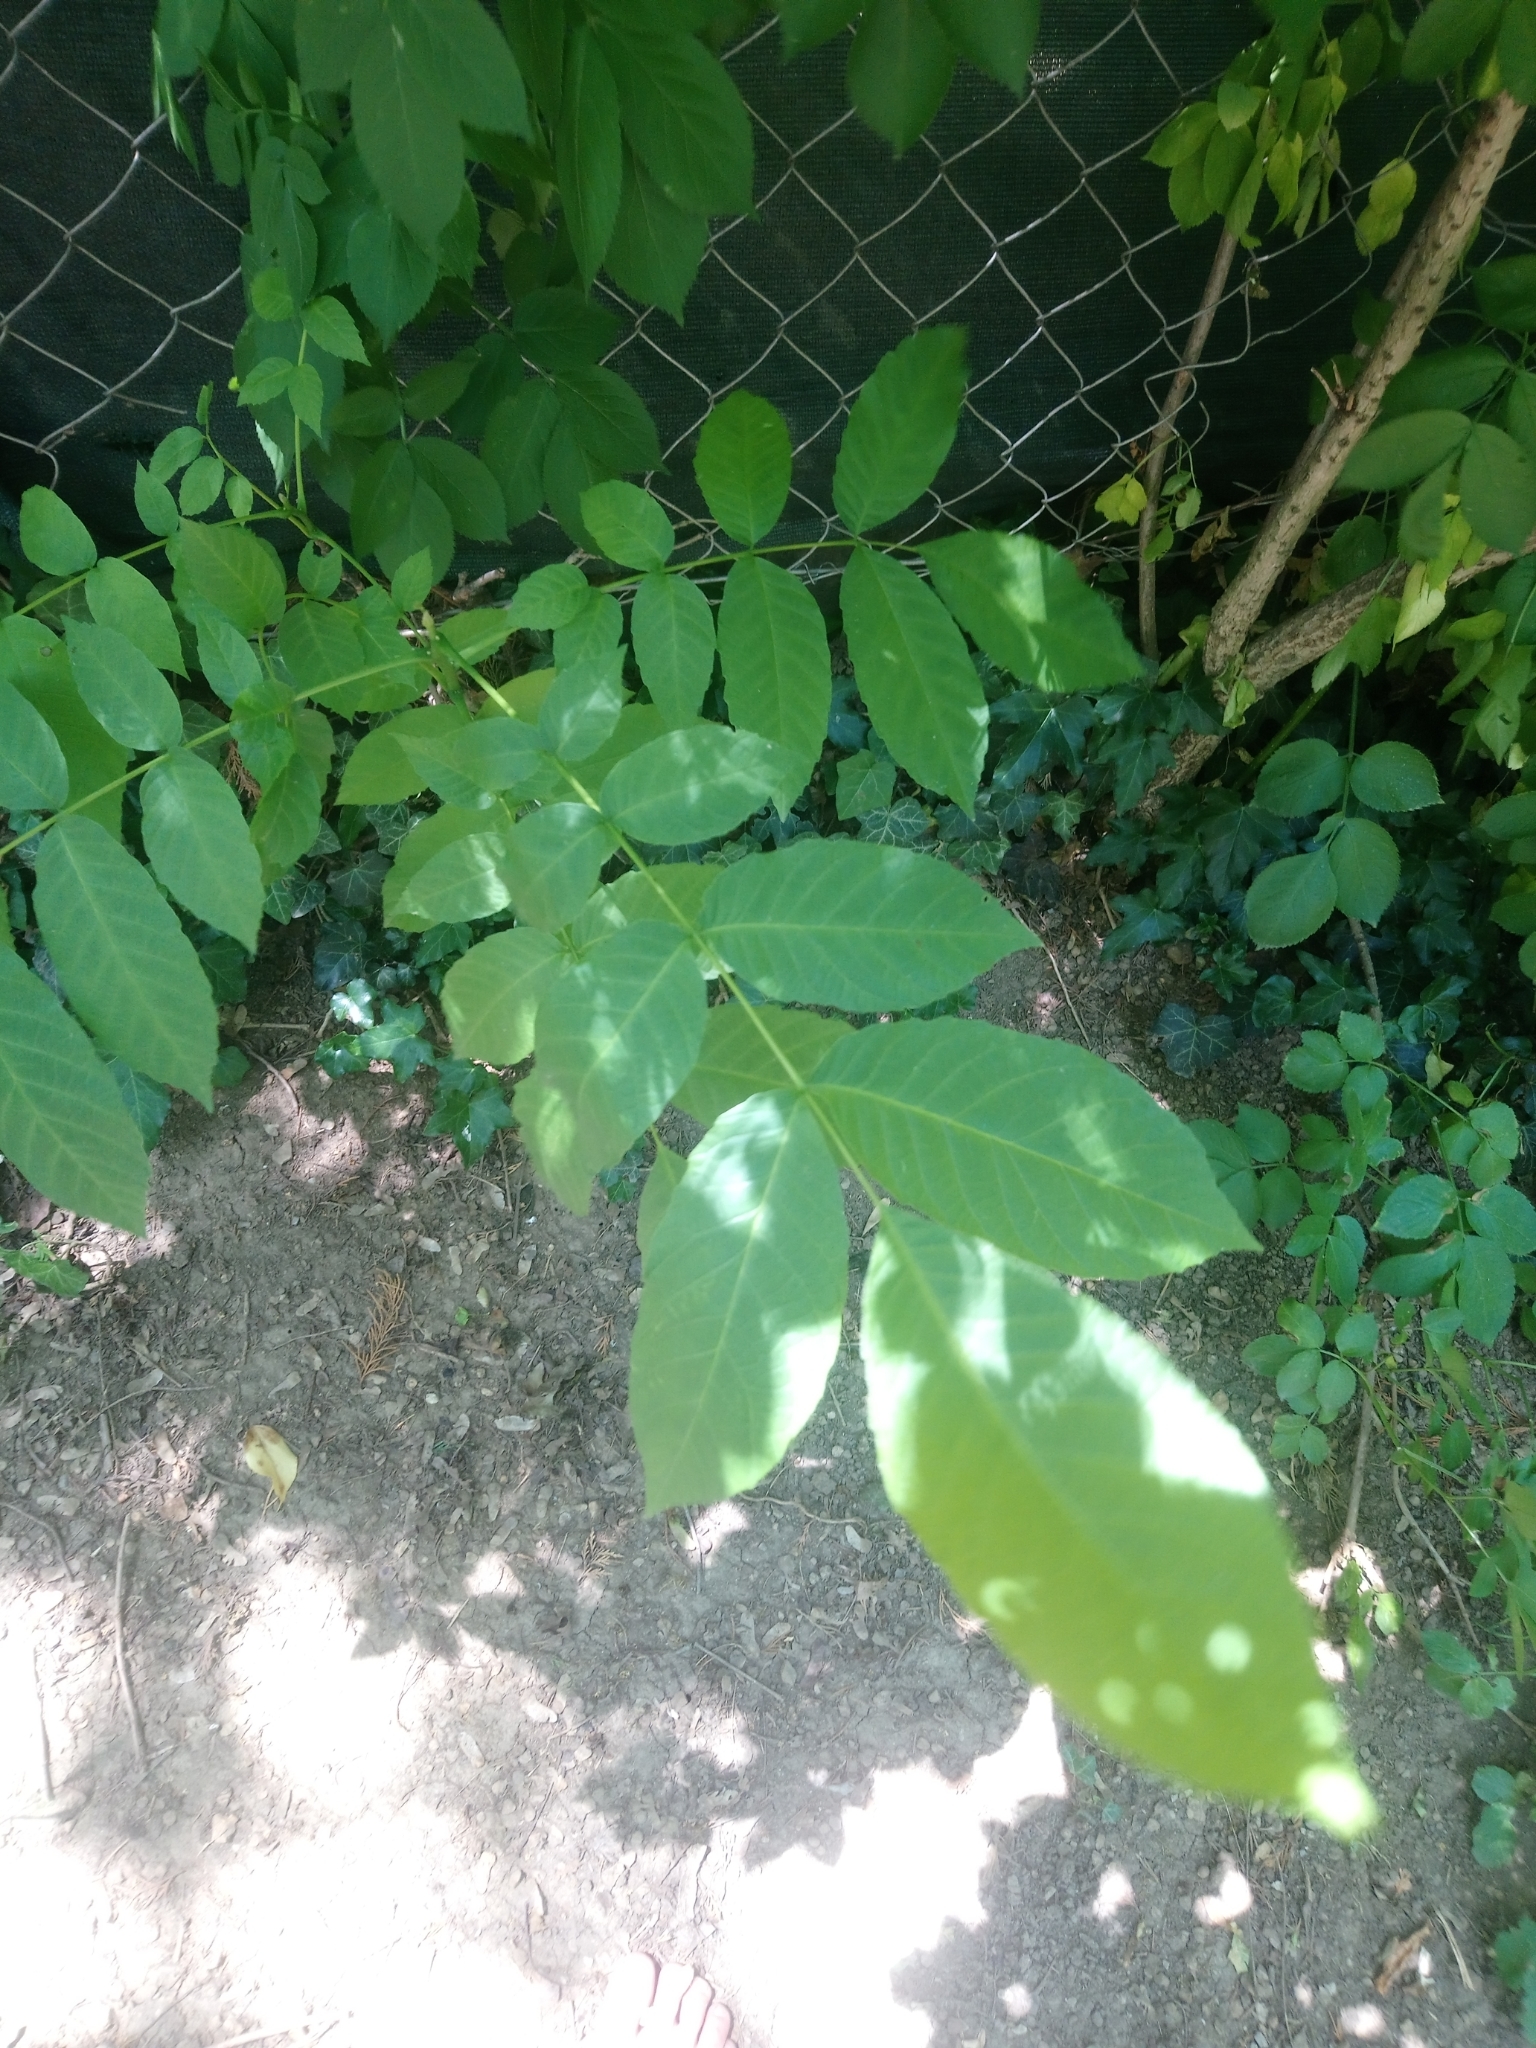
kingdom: Plantae
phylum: Tracheophyta
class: Magnoliopsida
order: Fagales
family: Juglandaceae
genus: Juglans
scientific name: Juglans regia
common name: Walnut
